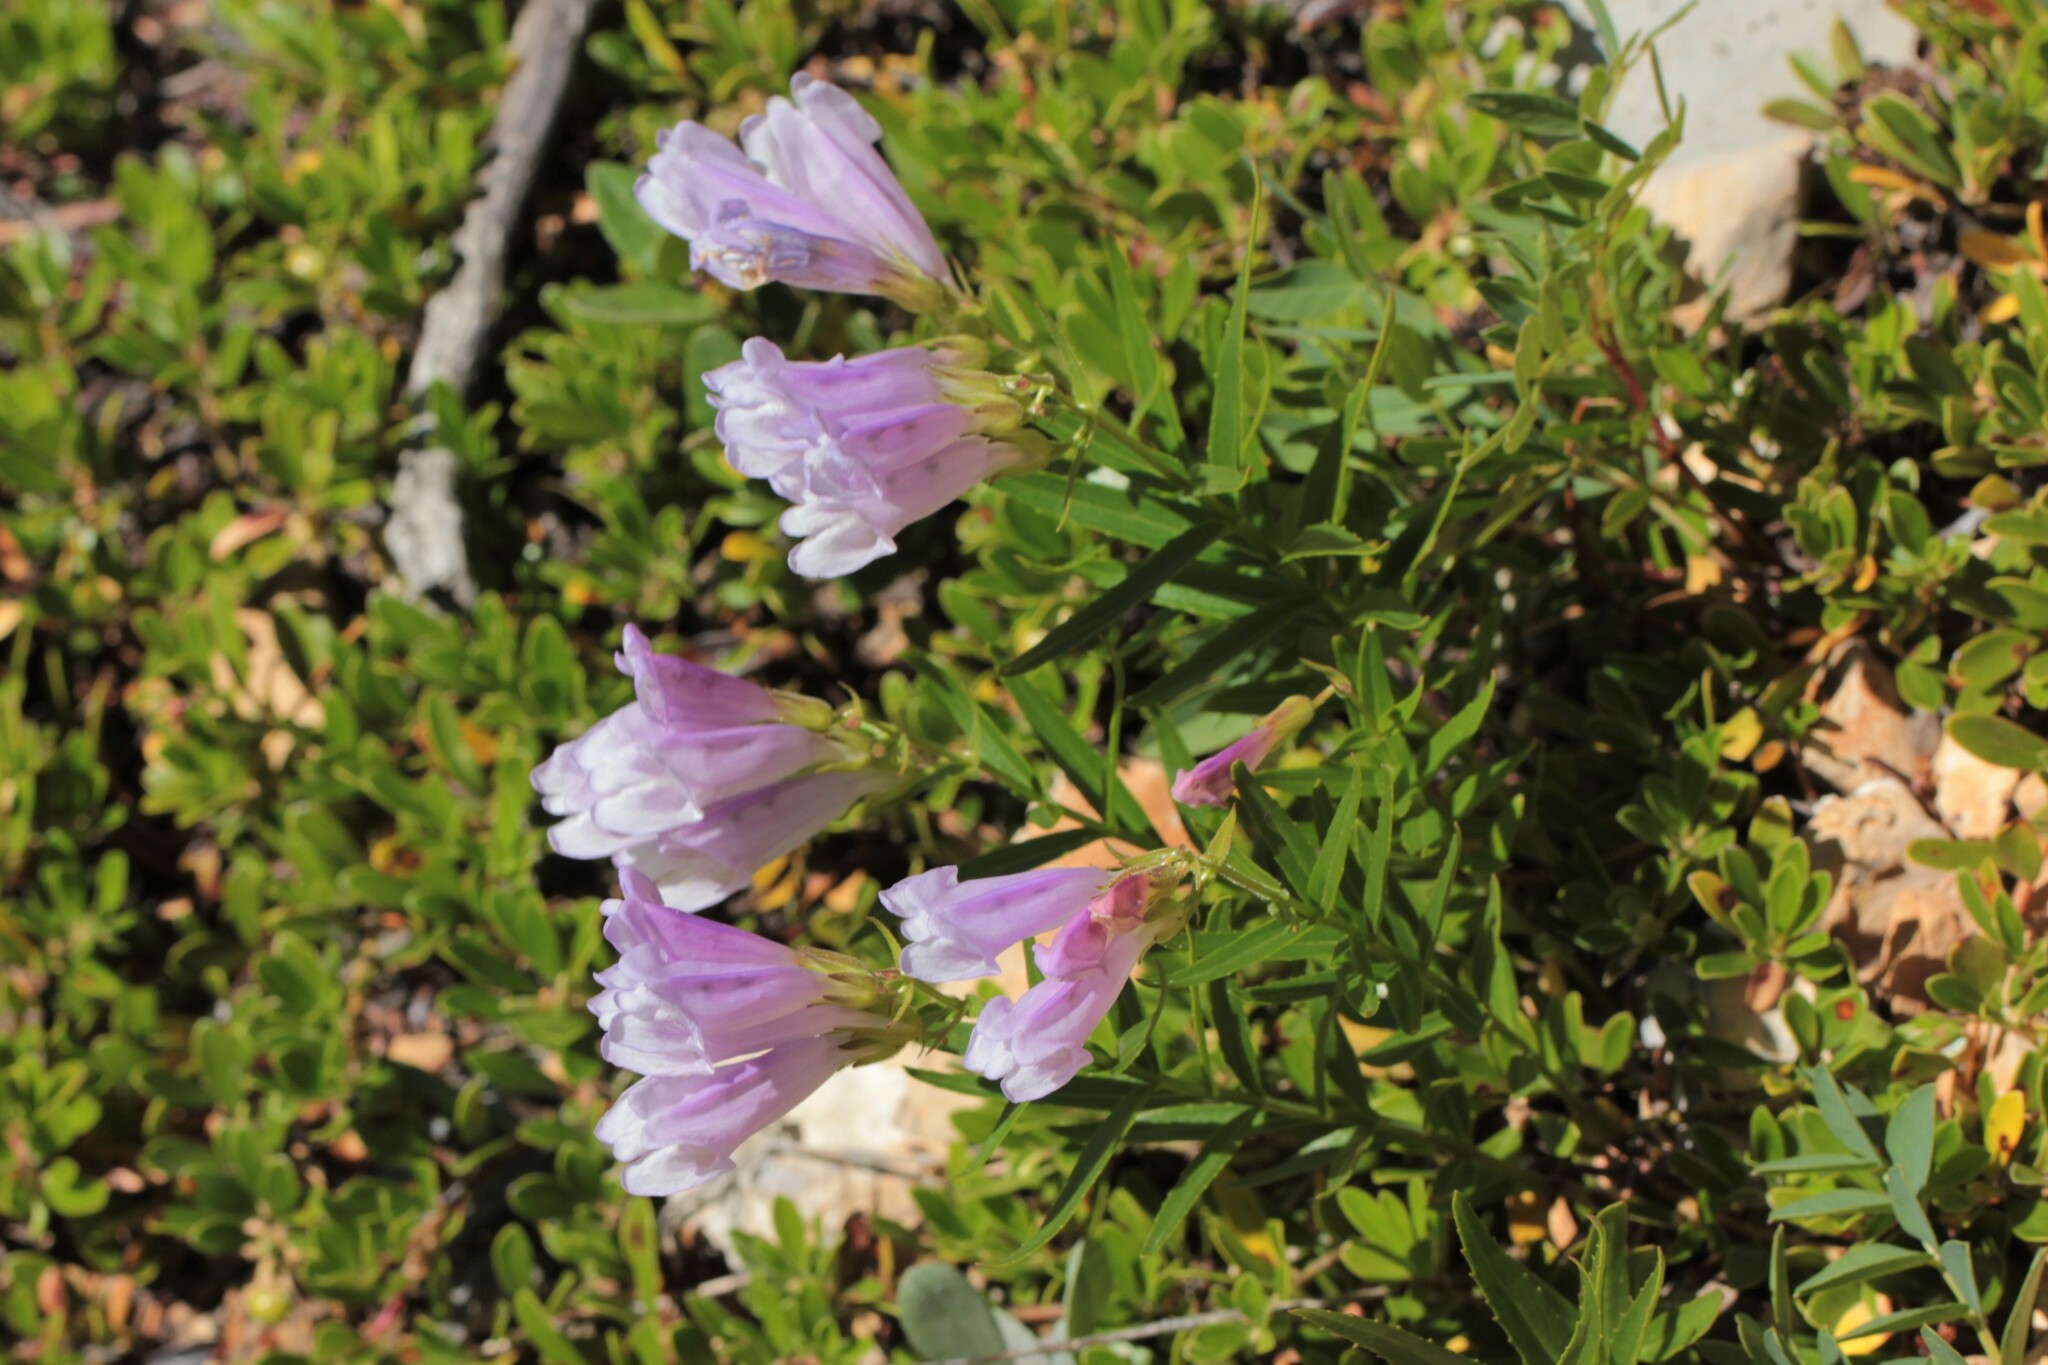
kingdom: Plantae
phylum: Tracheophyta
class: Magnoliopsida
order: Lamiales
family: Plantaginaceae
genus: Penstemon
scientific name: Penstemon lyalli
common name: Lyall's beardtongue
